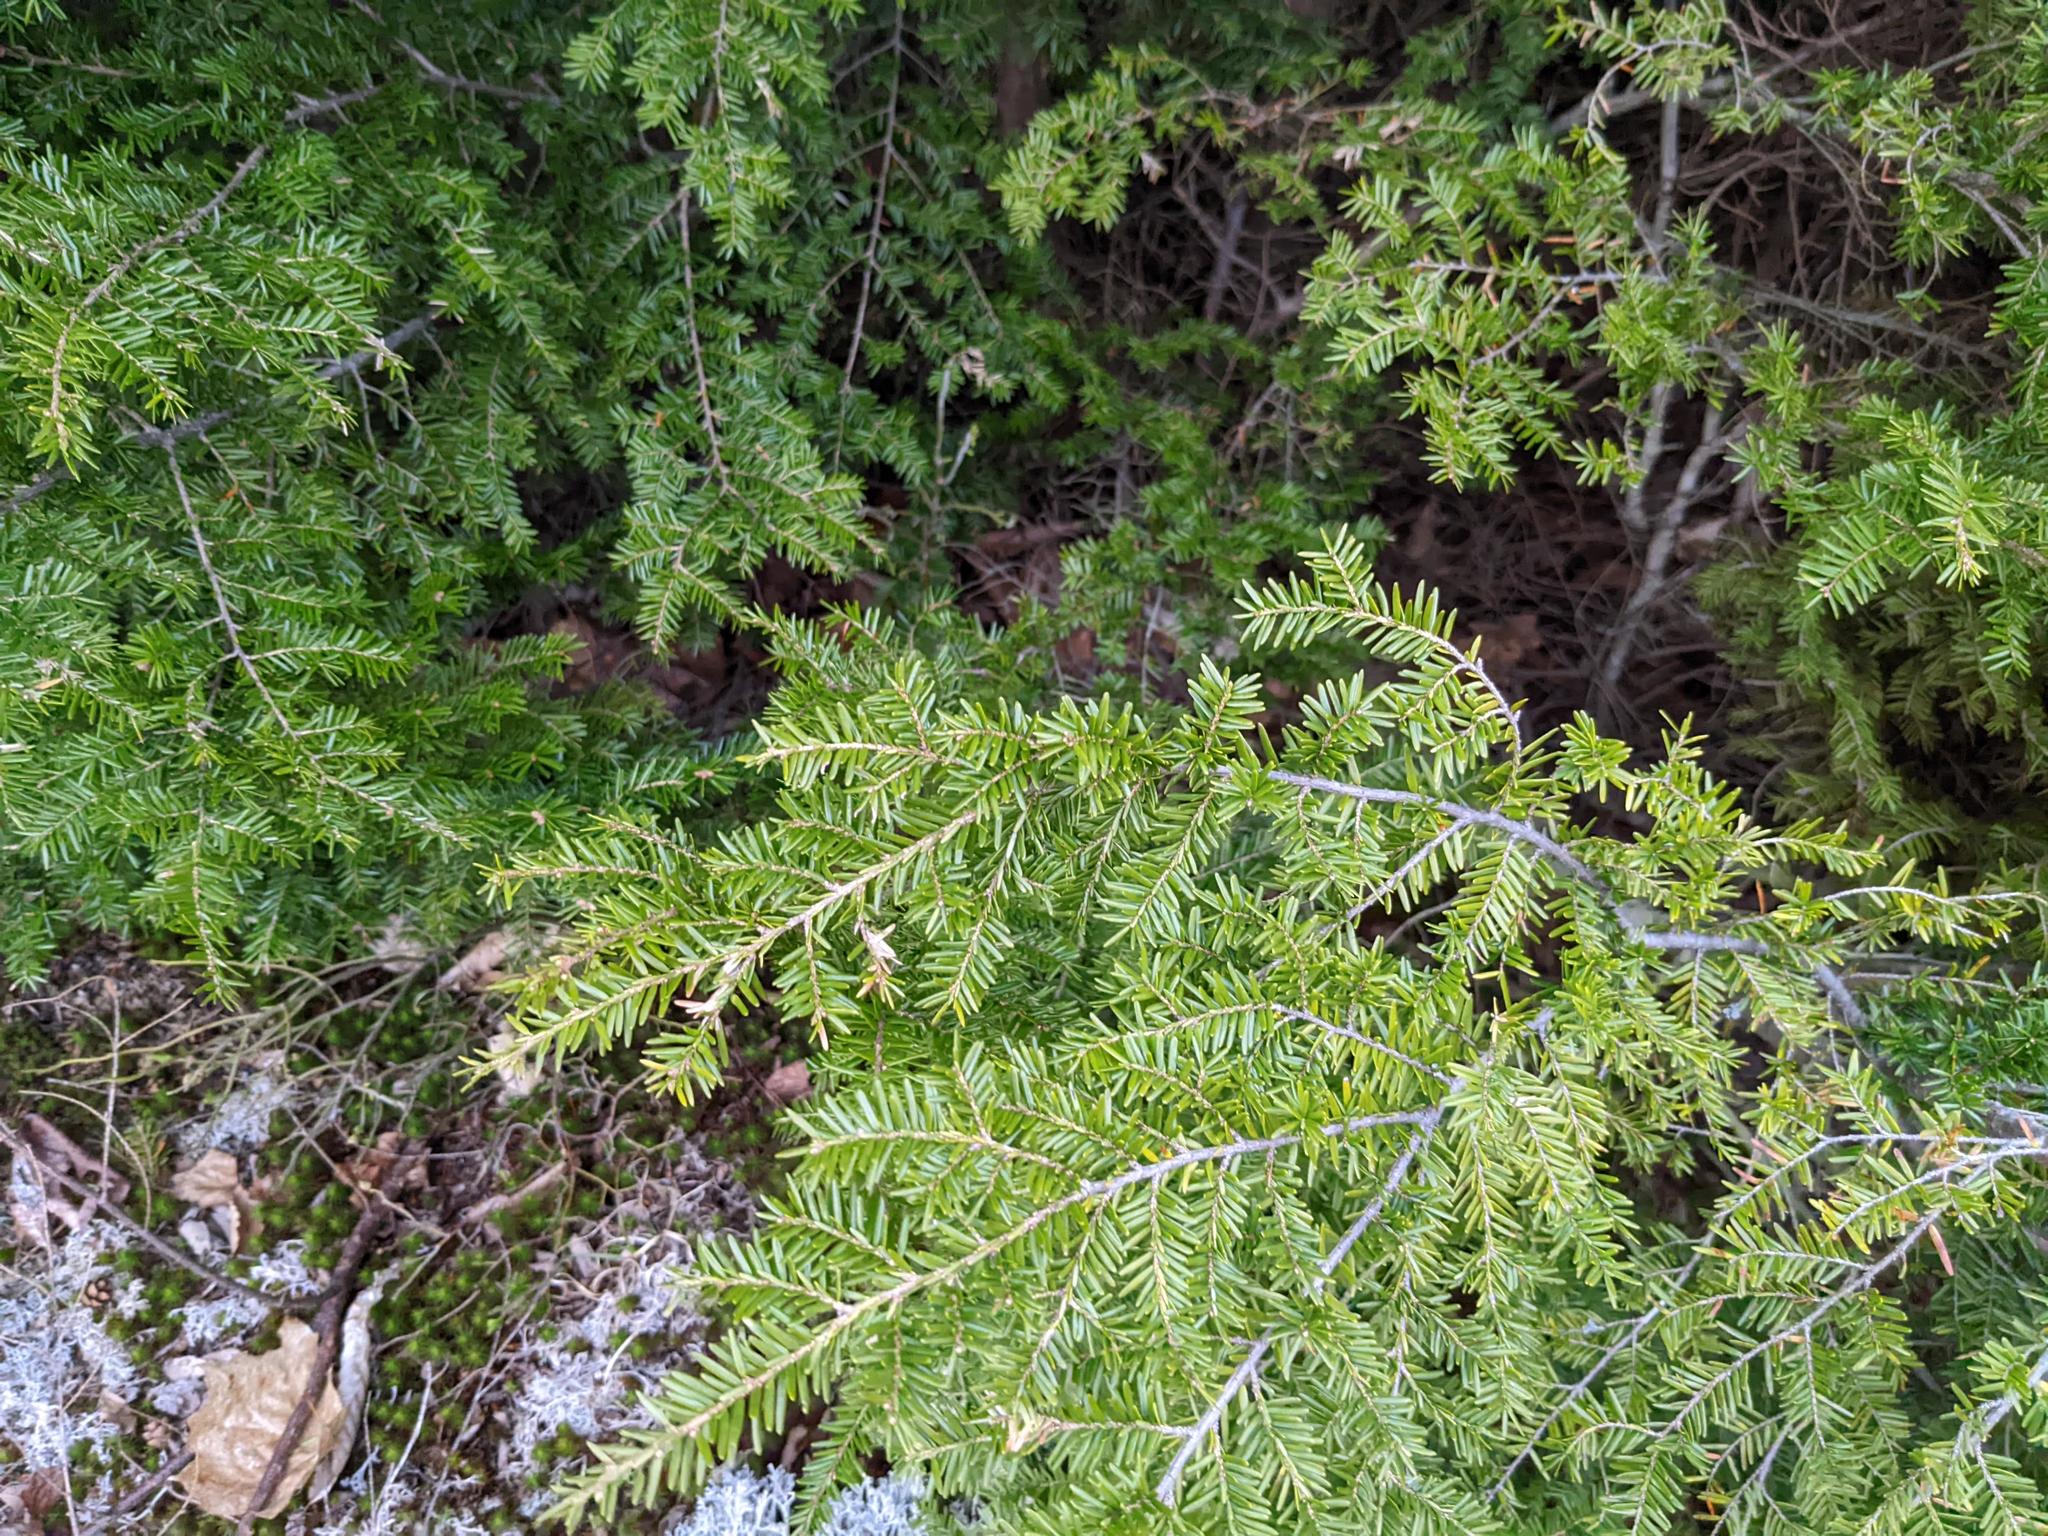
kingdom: Plantae
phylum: Tracheophyta
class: Pinopsida
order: Pinales
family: Pinaceae
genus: Tsuga
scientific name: Tsuga canadensis
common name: Eastern hemlock
